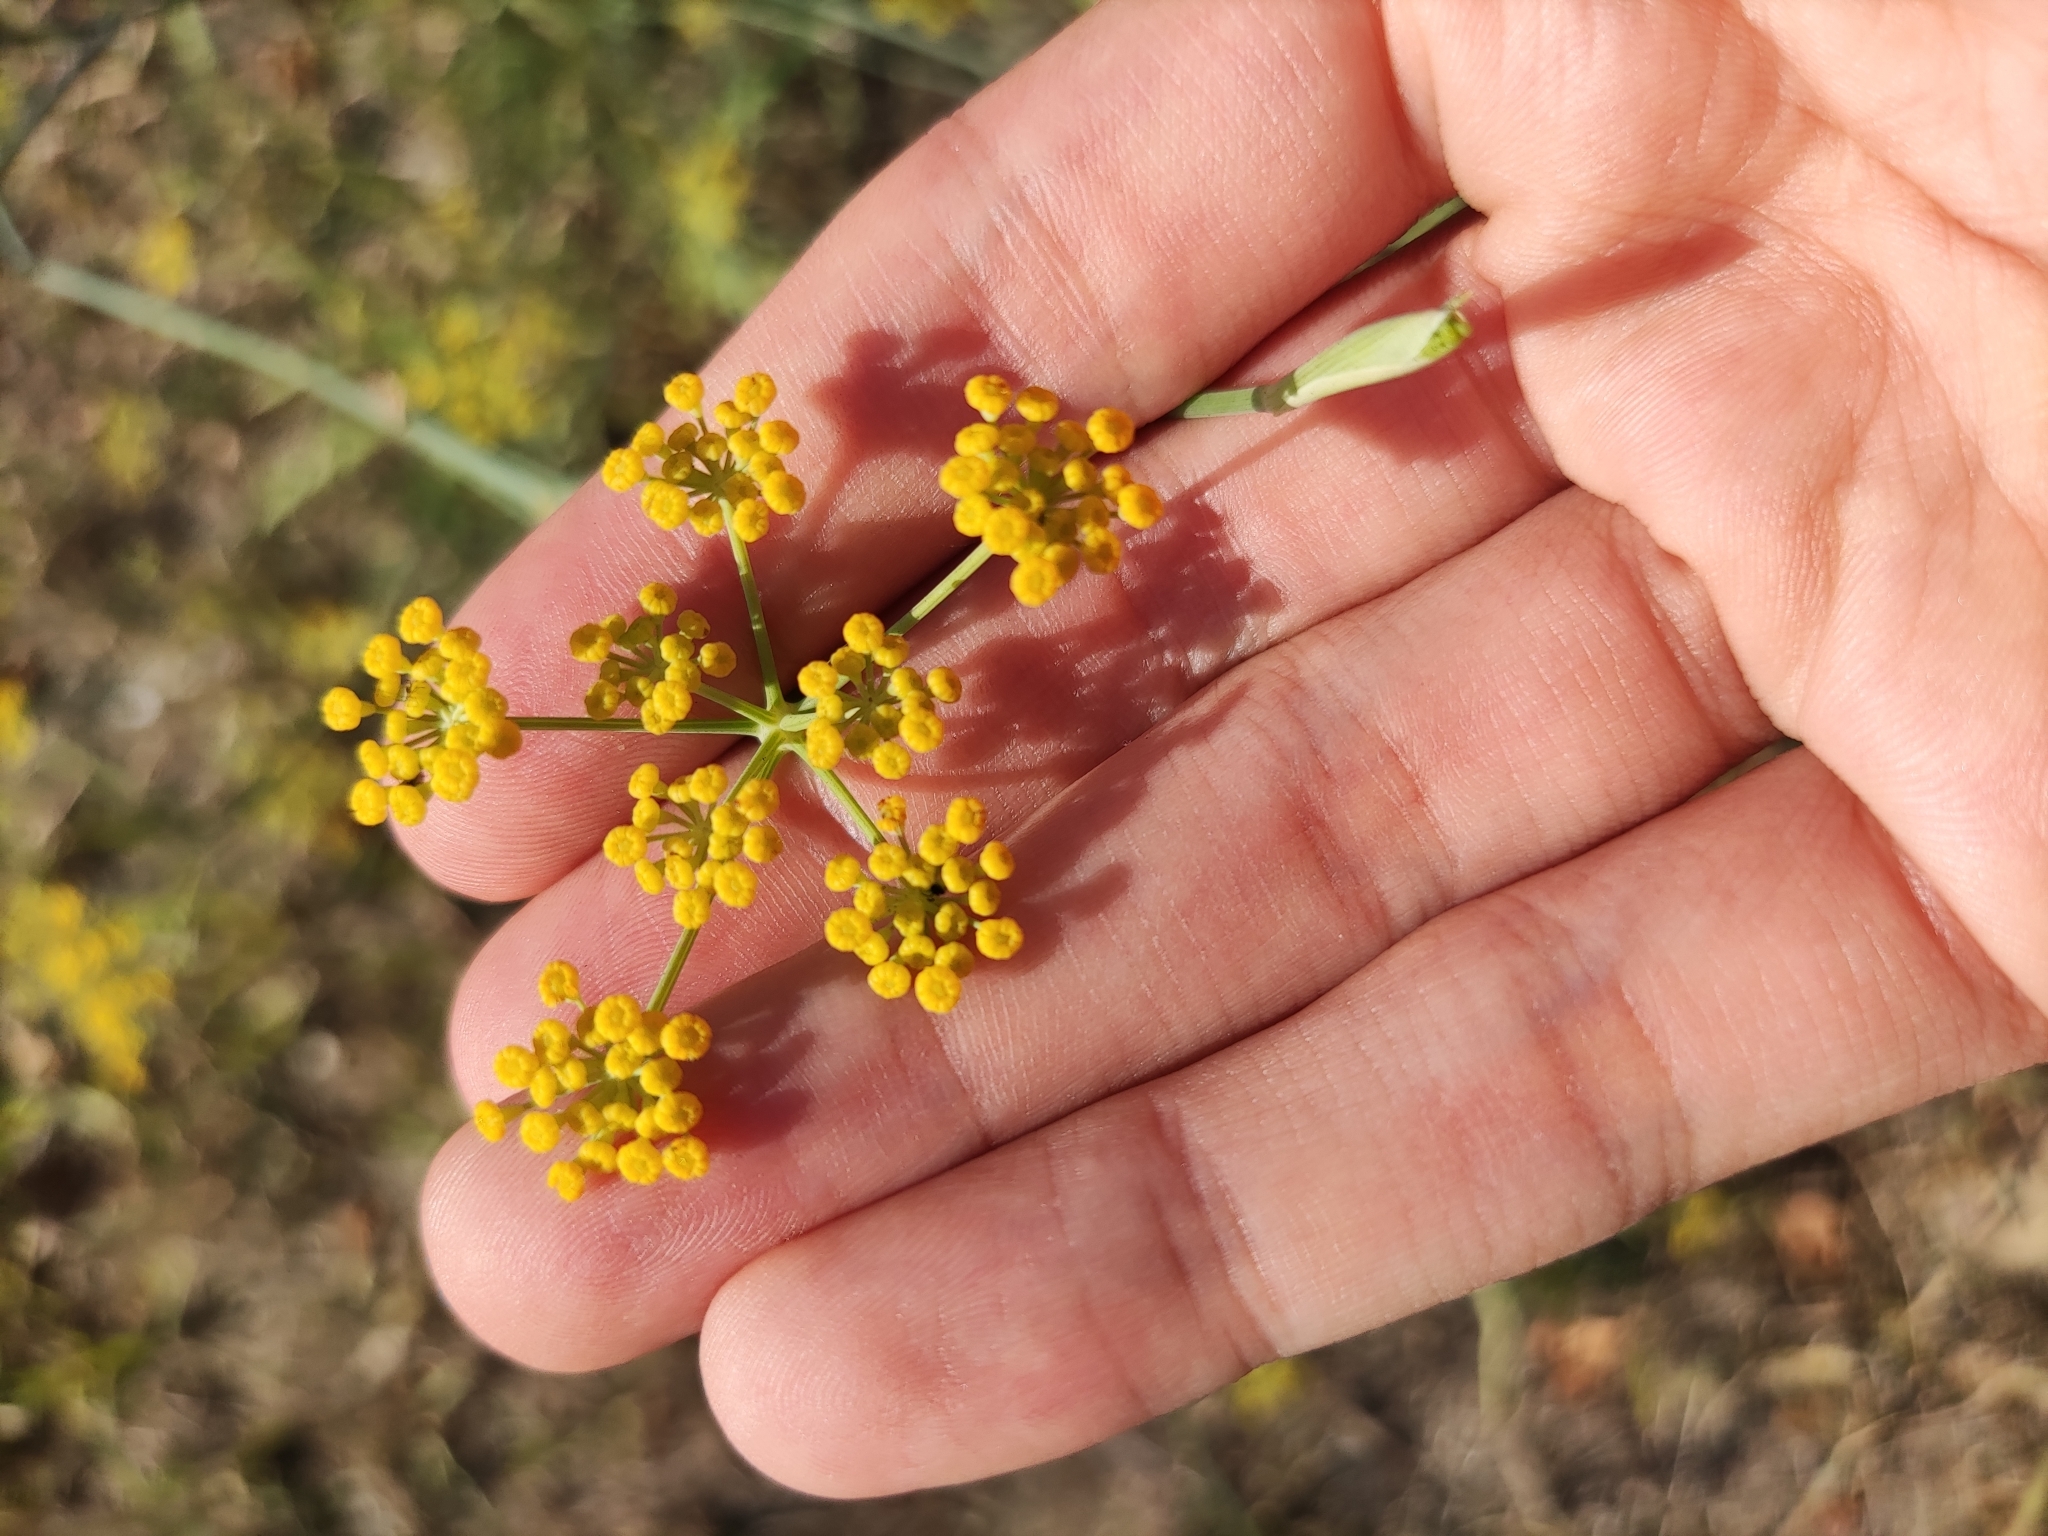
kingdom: Plantae
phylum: Tracheophyta
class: Magnoliopsida
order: Apiales
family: Apiaceae
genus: Foeniculum
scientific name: Foeniculum vulgare
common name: Fennel
